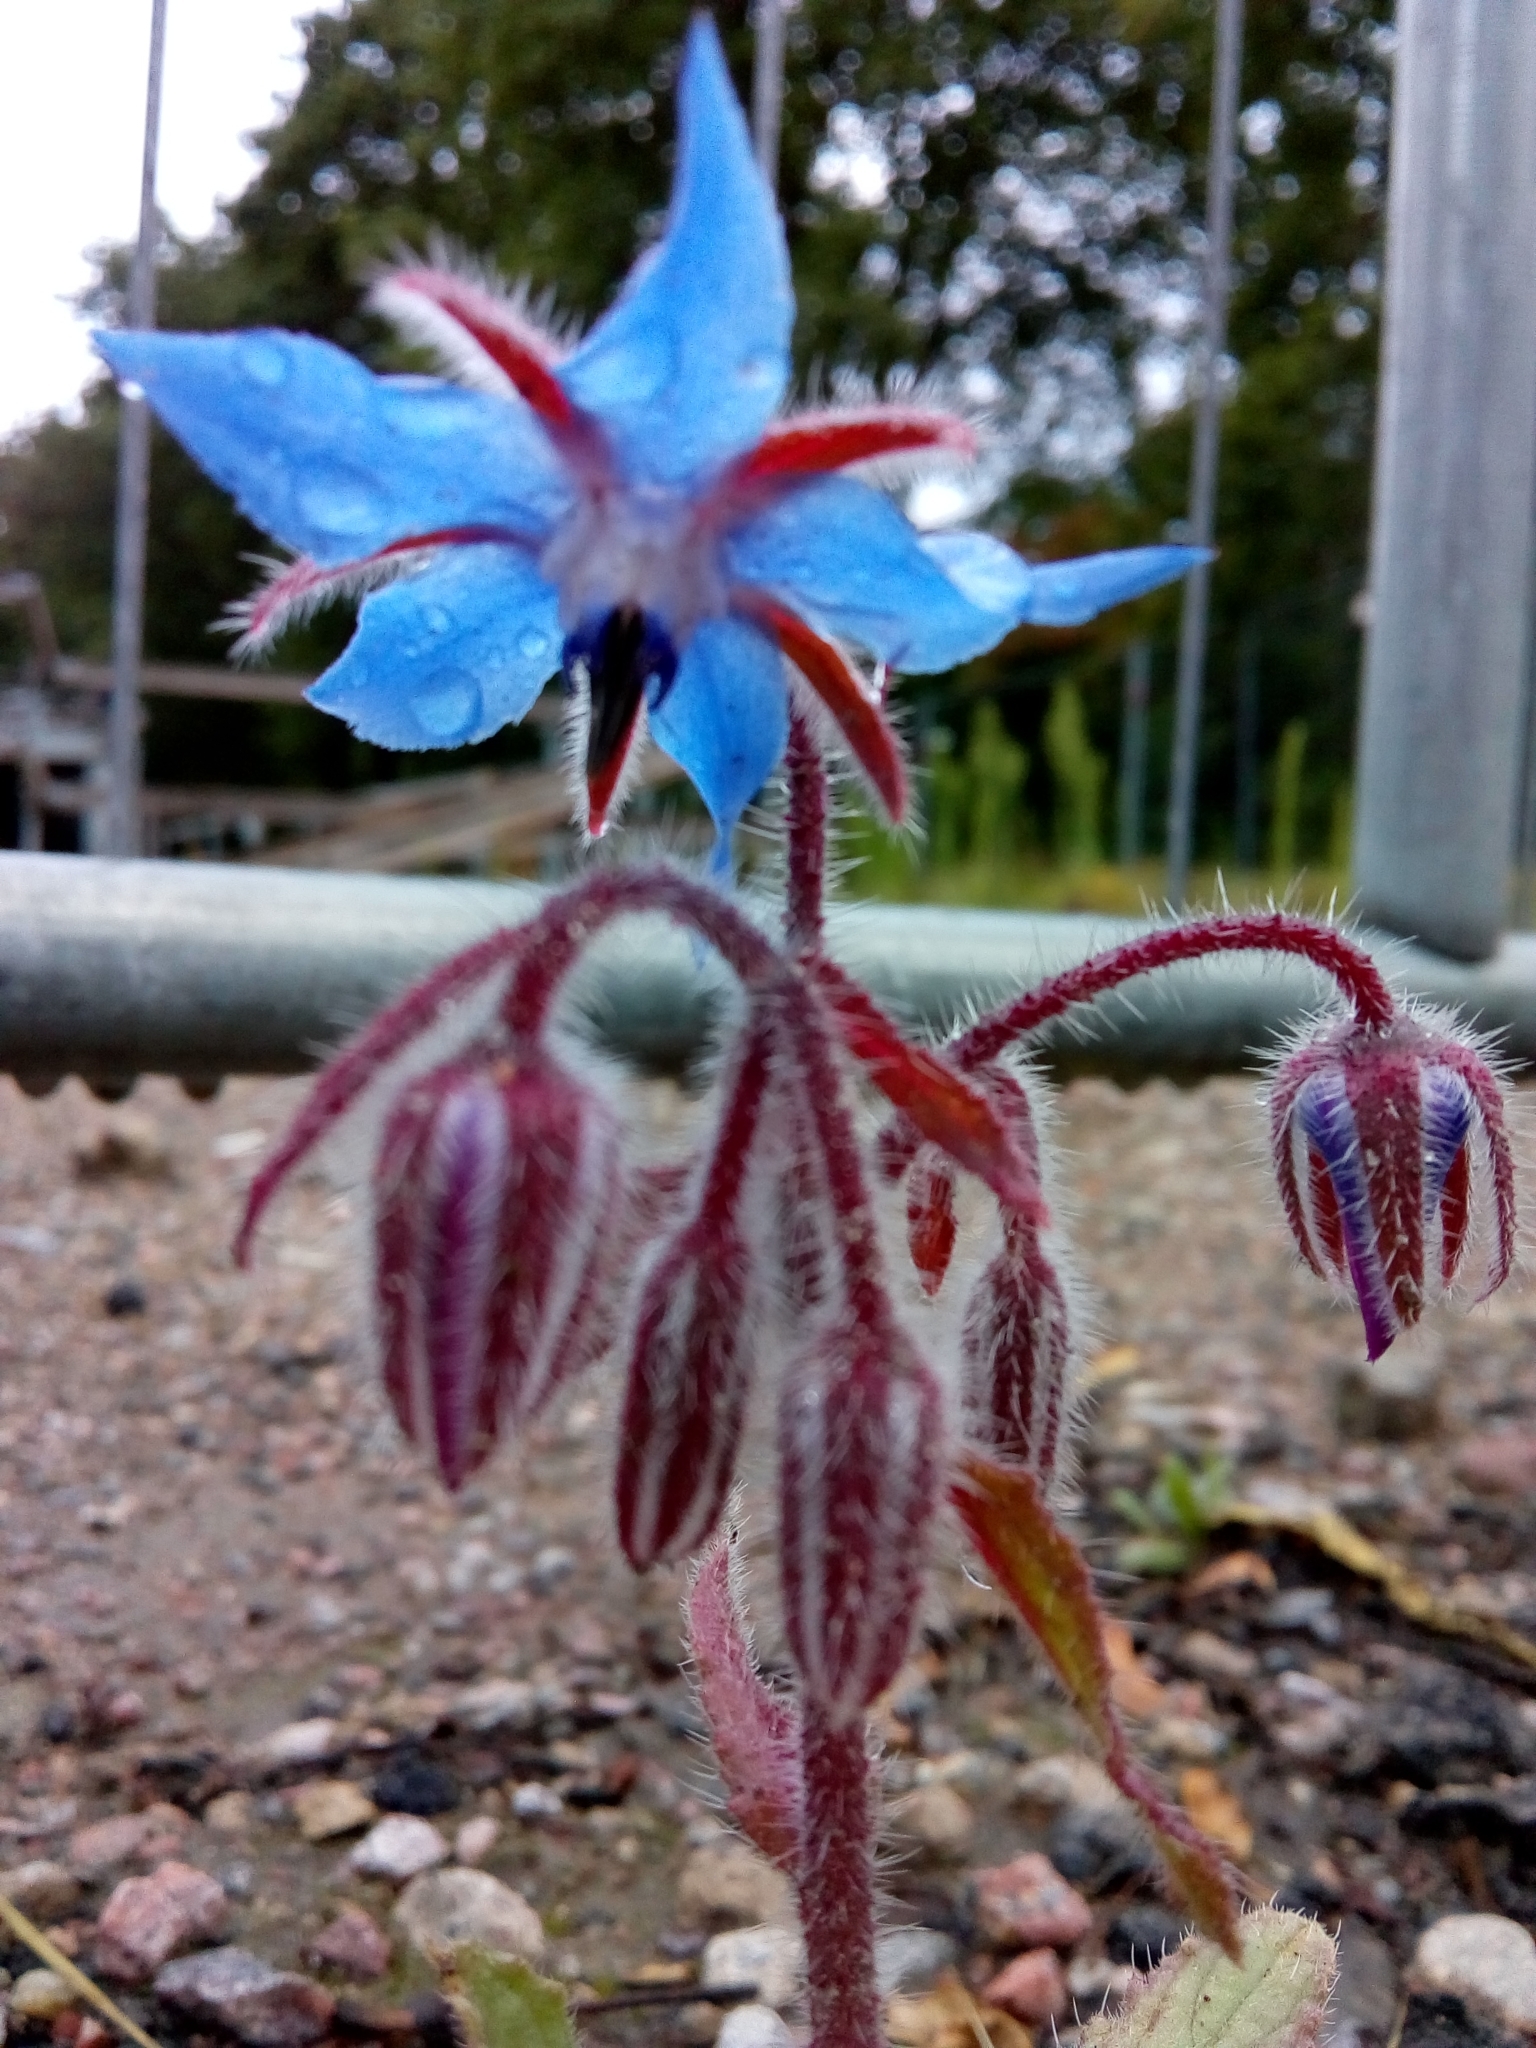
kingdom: Plantae
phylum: Tracheophyta
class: Magnoliopsida
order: Boraginales
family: Boraginaceae
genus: Borago
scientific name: Borago officinalis
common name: Borage
